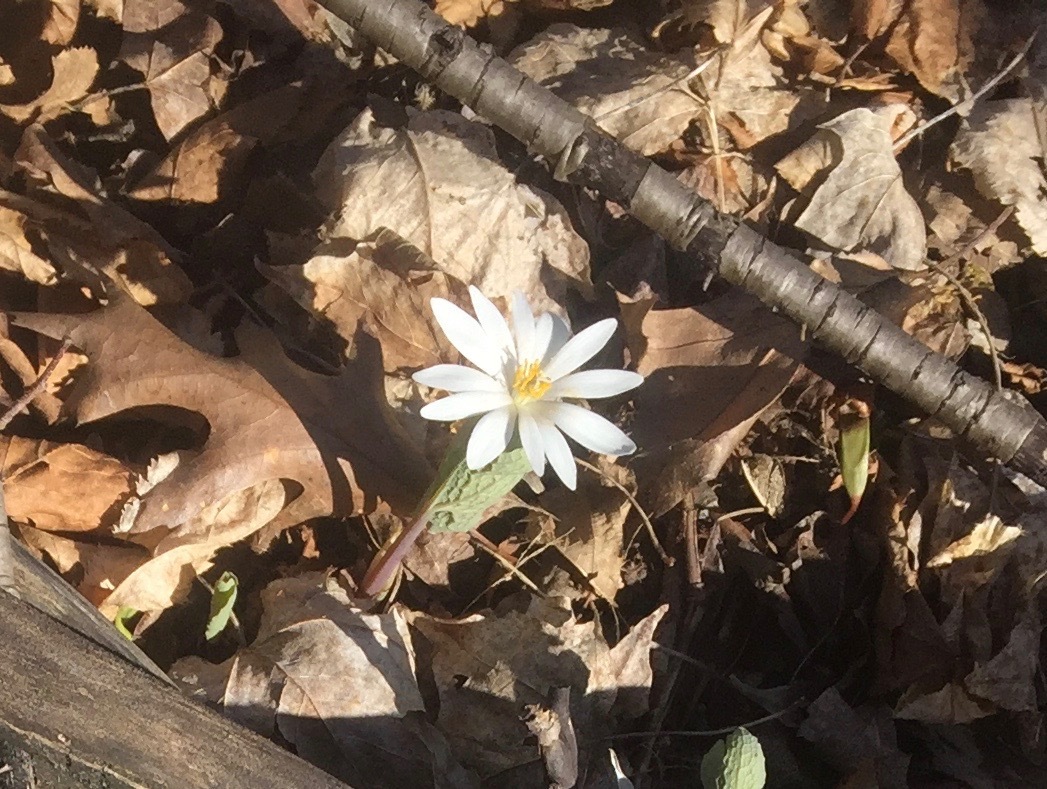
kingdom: Plantae
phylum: Tracheophyta
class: Magnoliopsida
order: Ranunculales
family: Papaveraceae
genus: Sanguinaria
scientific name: Sanguinaria canadensis
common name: Bloodroot
